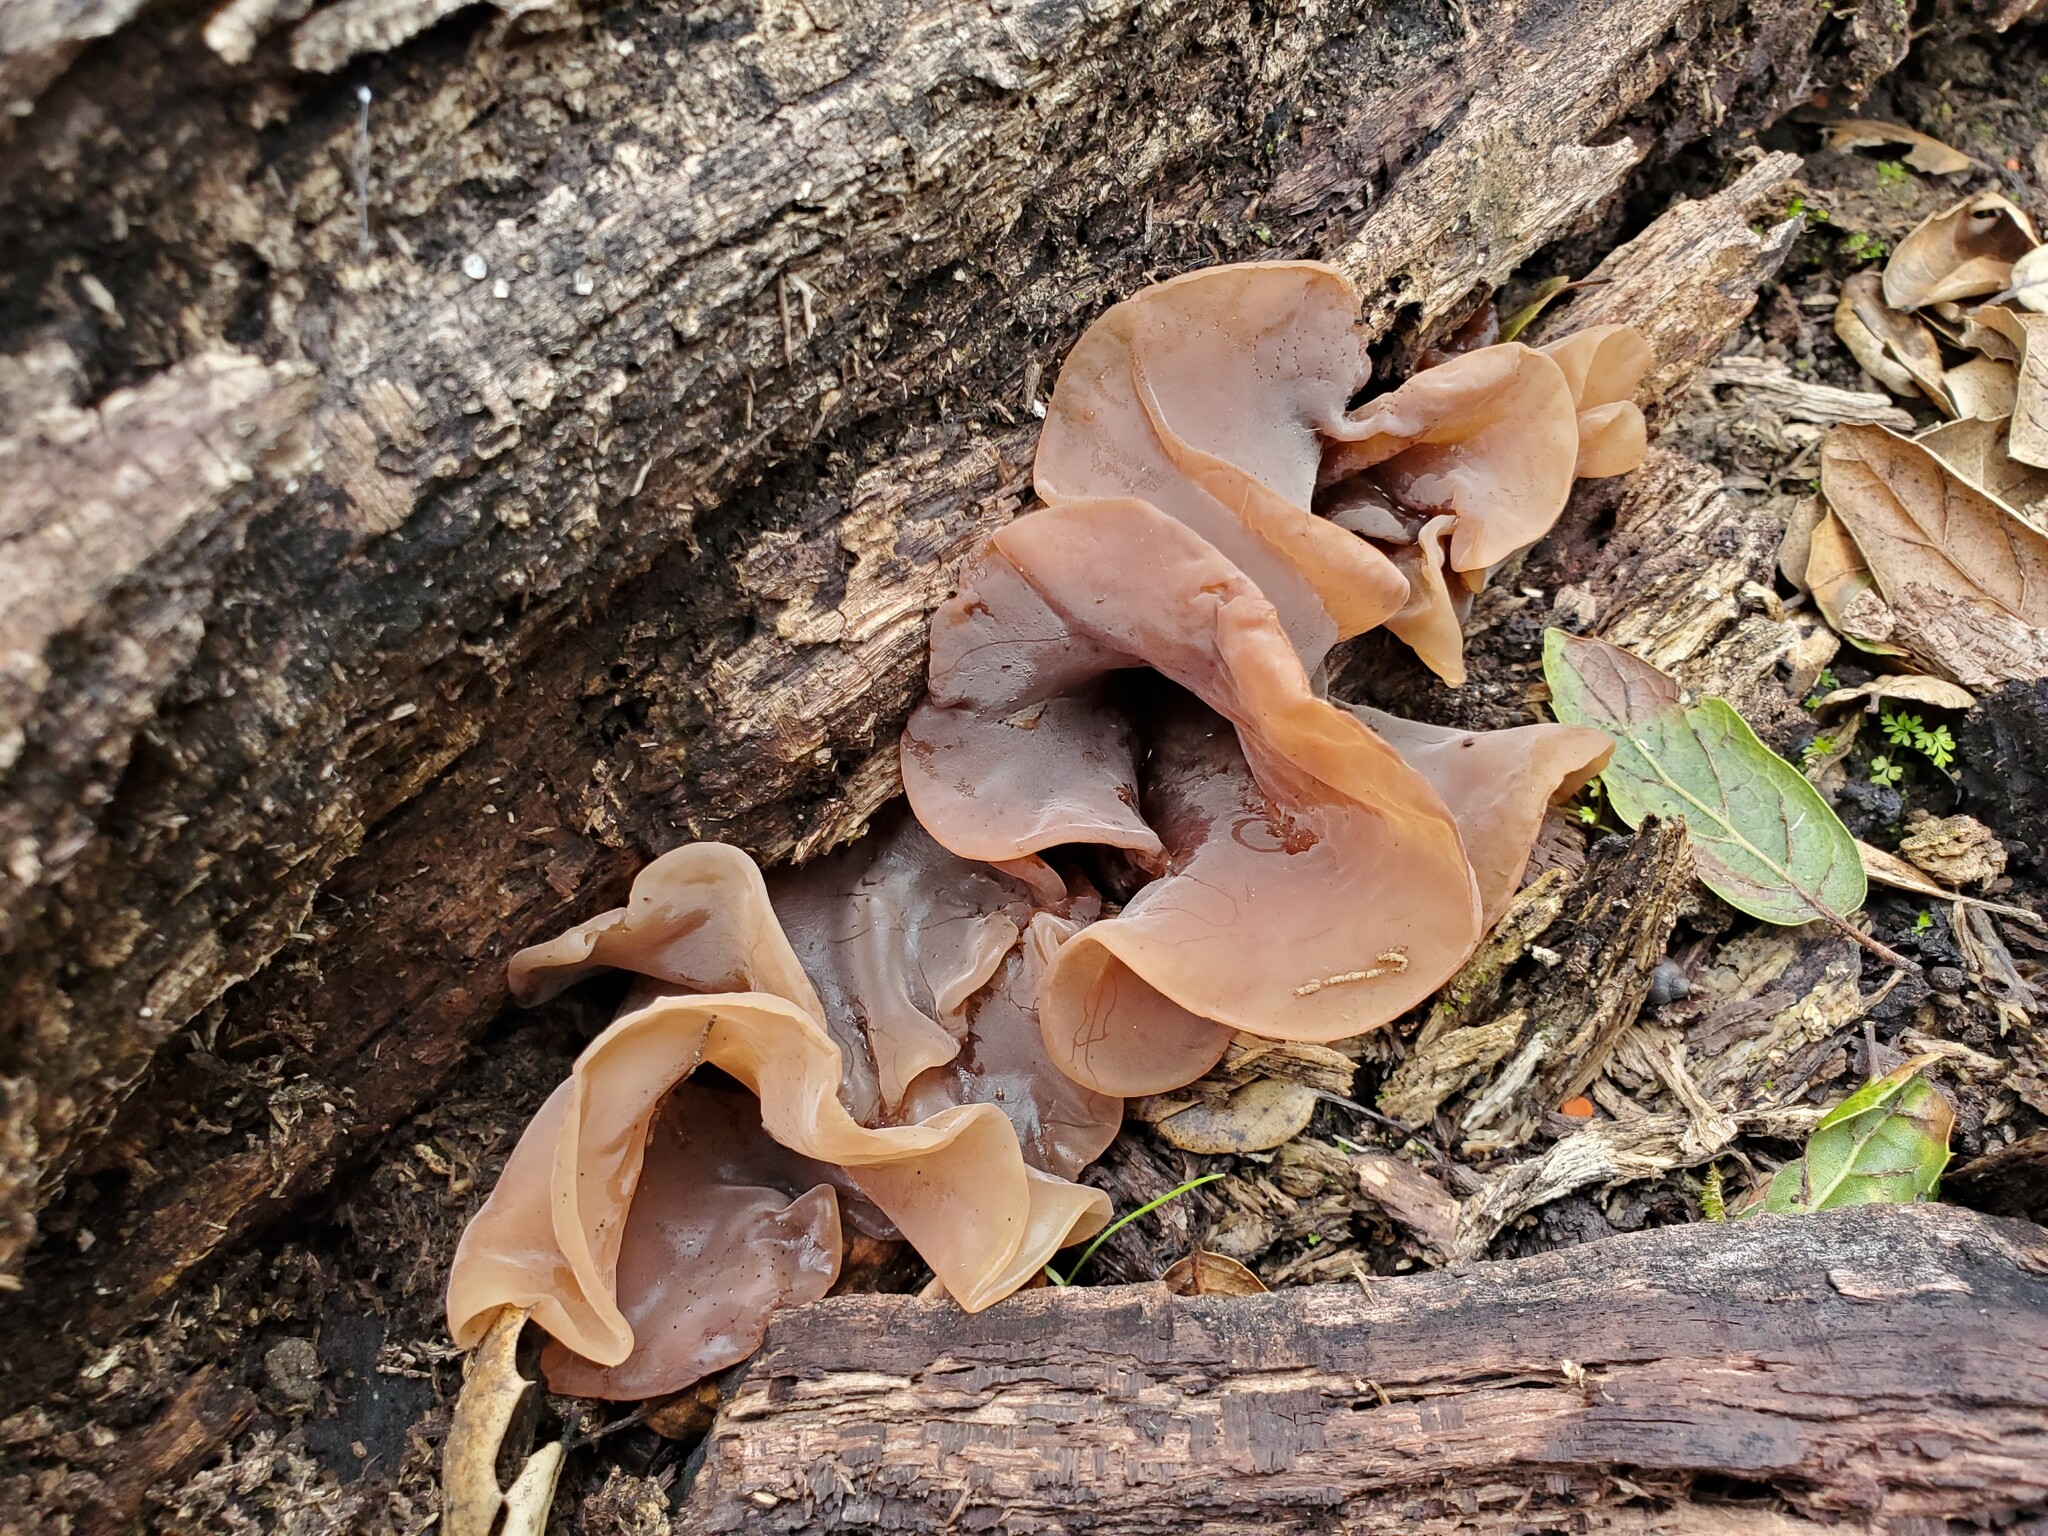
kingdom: Fungi
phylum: Basidiomycota
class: Tremellomycetes
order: Tremellales
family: Tremellaceae
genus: Phaeotremella
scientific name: Phaeotremella frondosa
